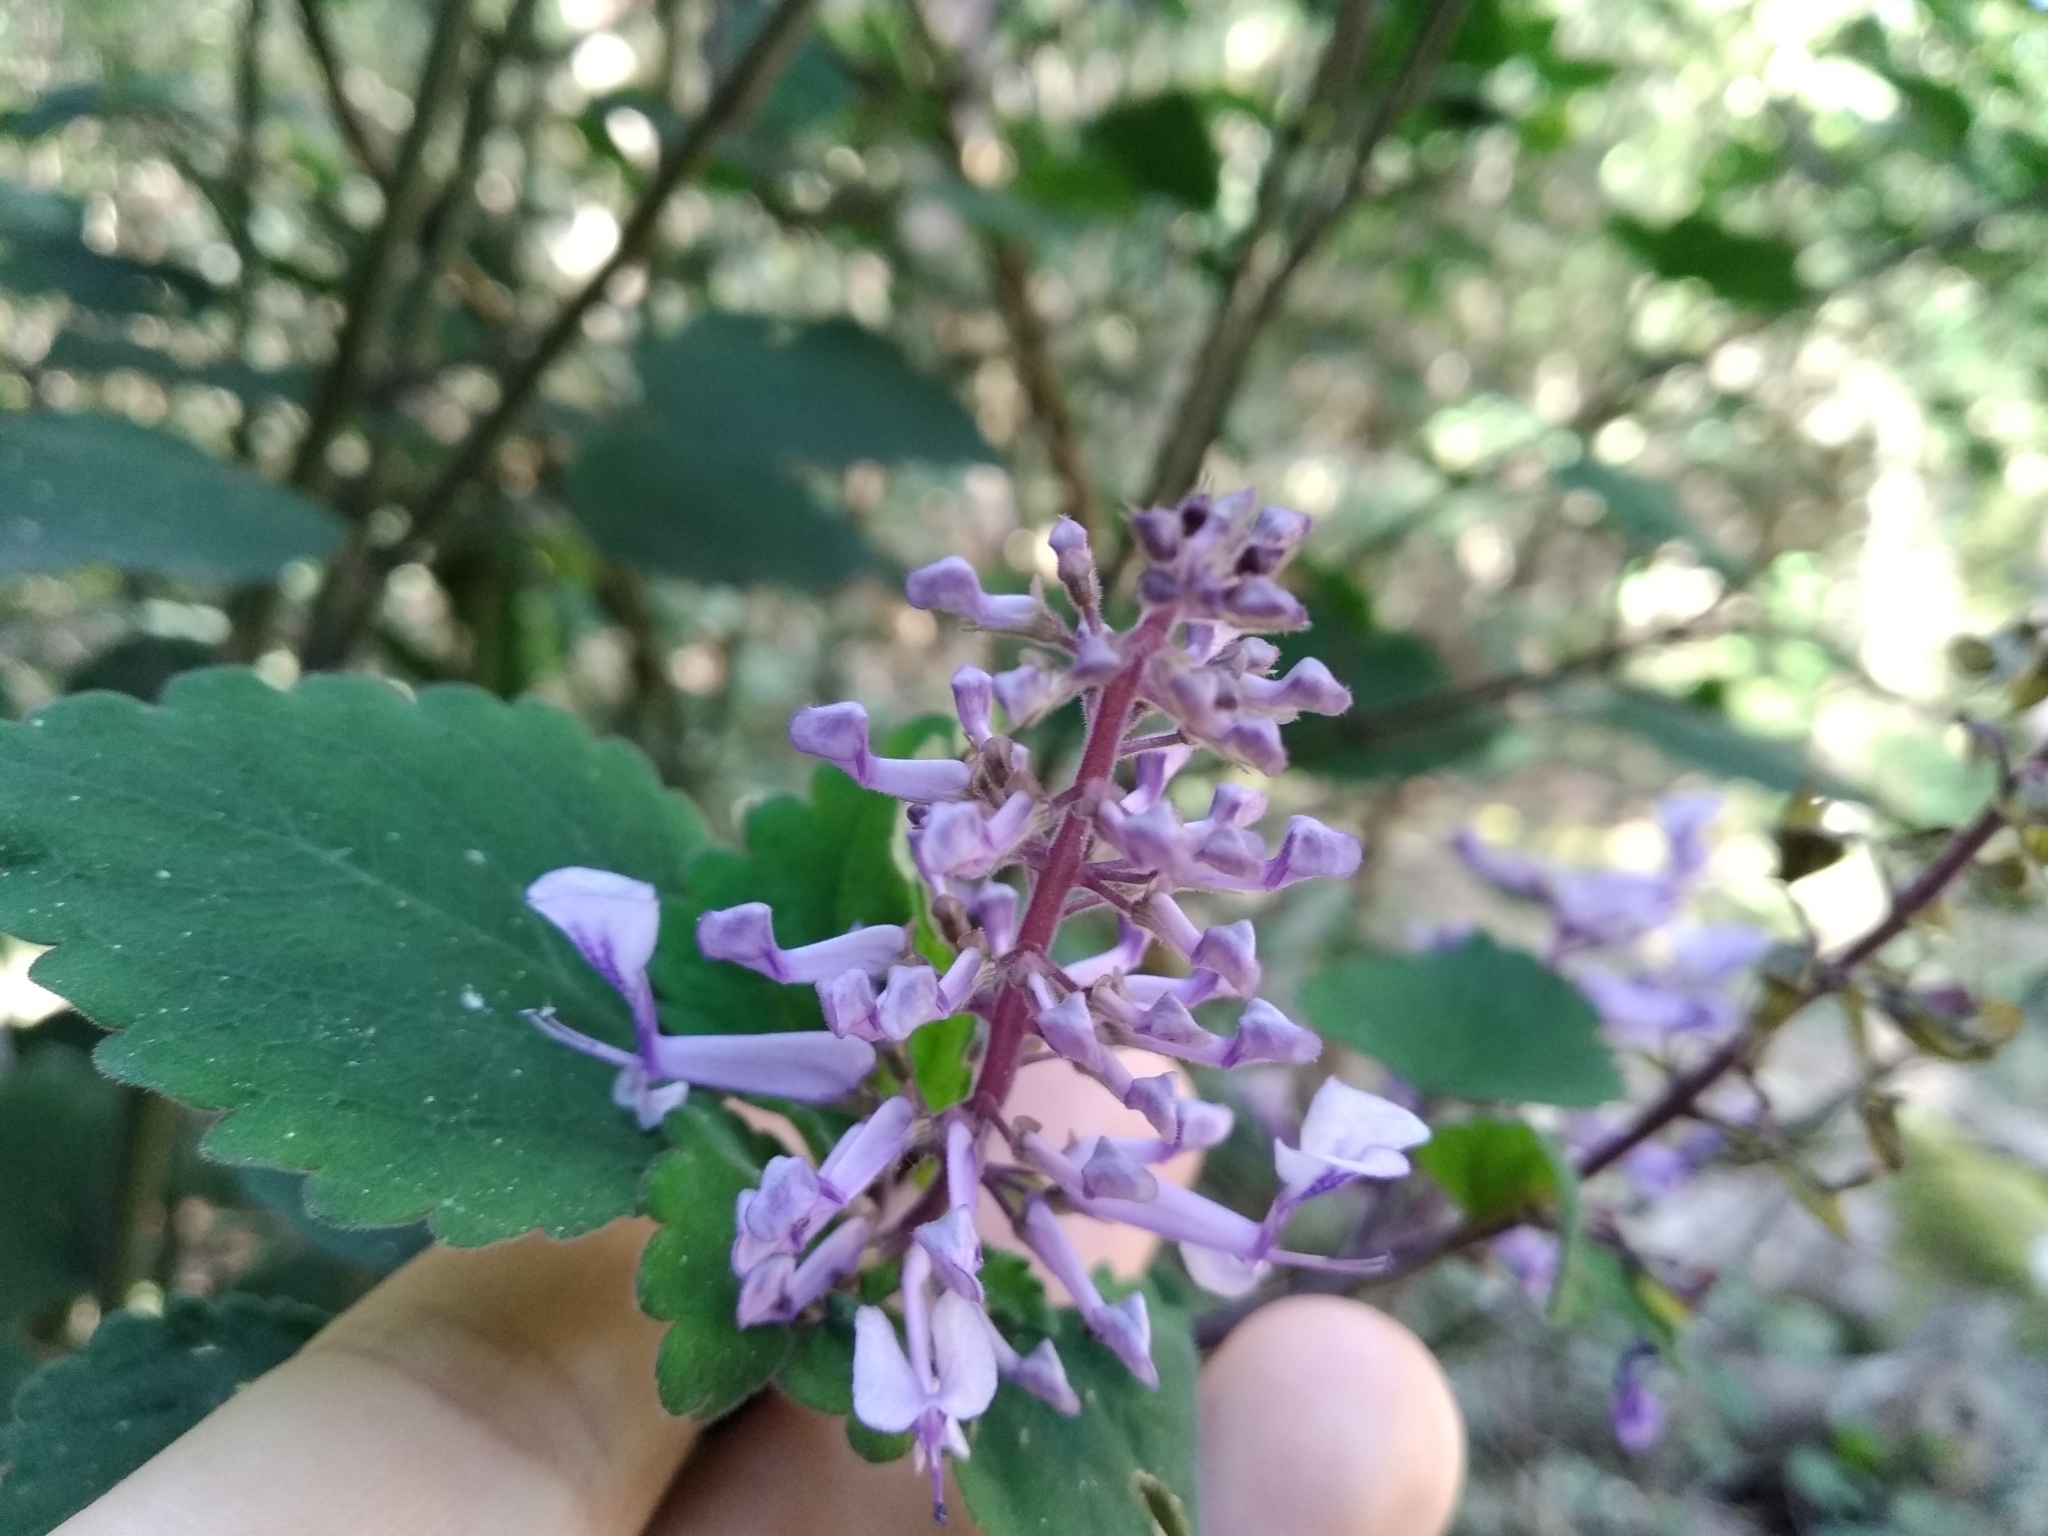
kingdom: Plantae
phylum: Tracheophyta
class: Magnoliopsida
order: Lamiales
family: Lamiaceae
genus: Plectranthus
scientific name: Plectranthus zuluensis
